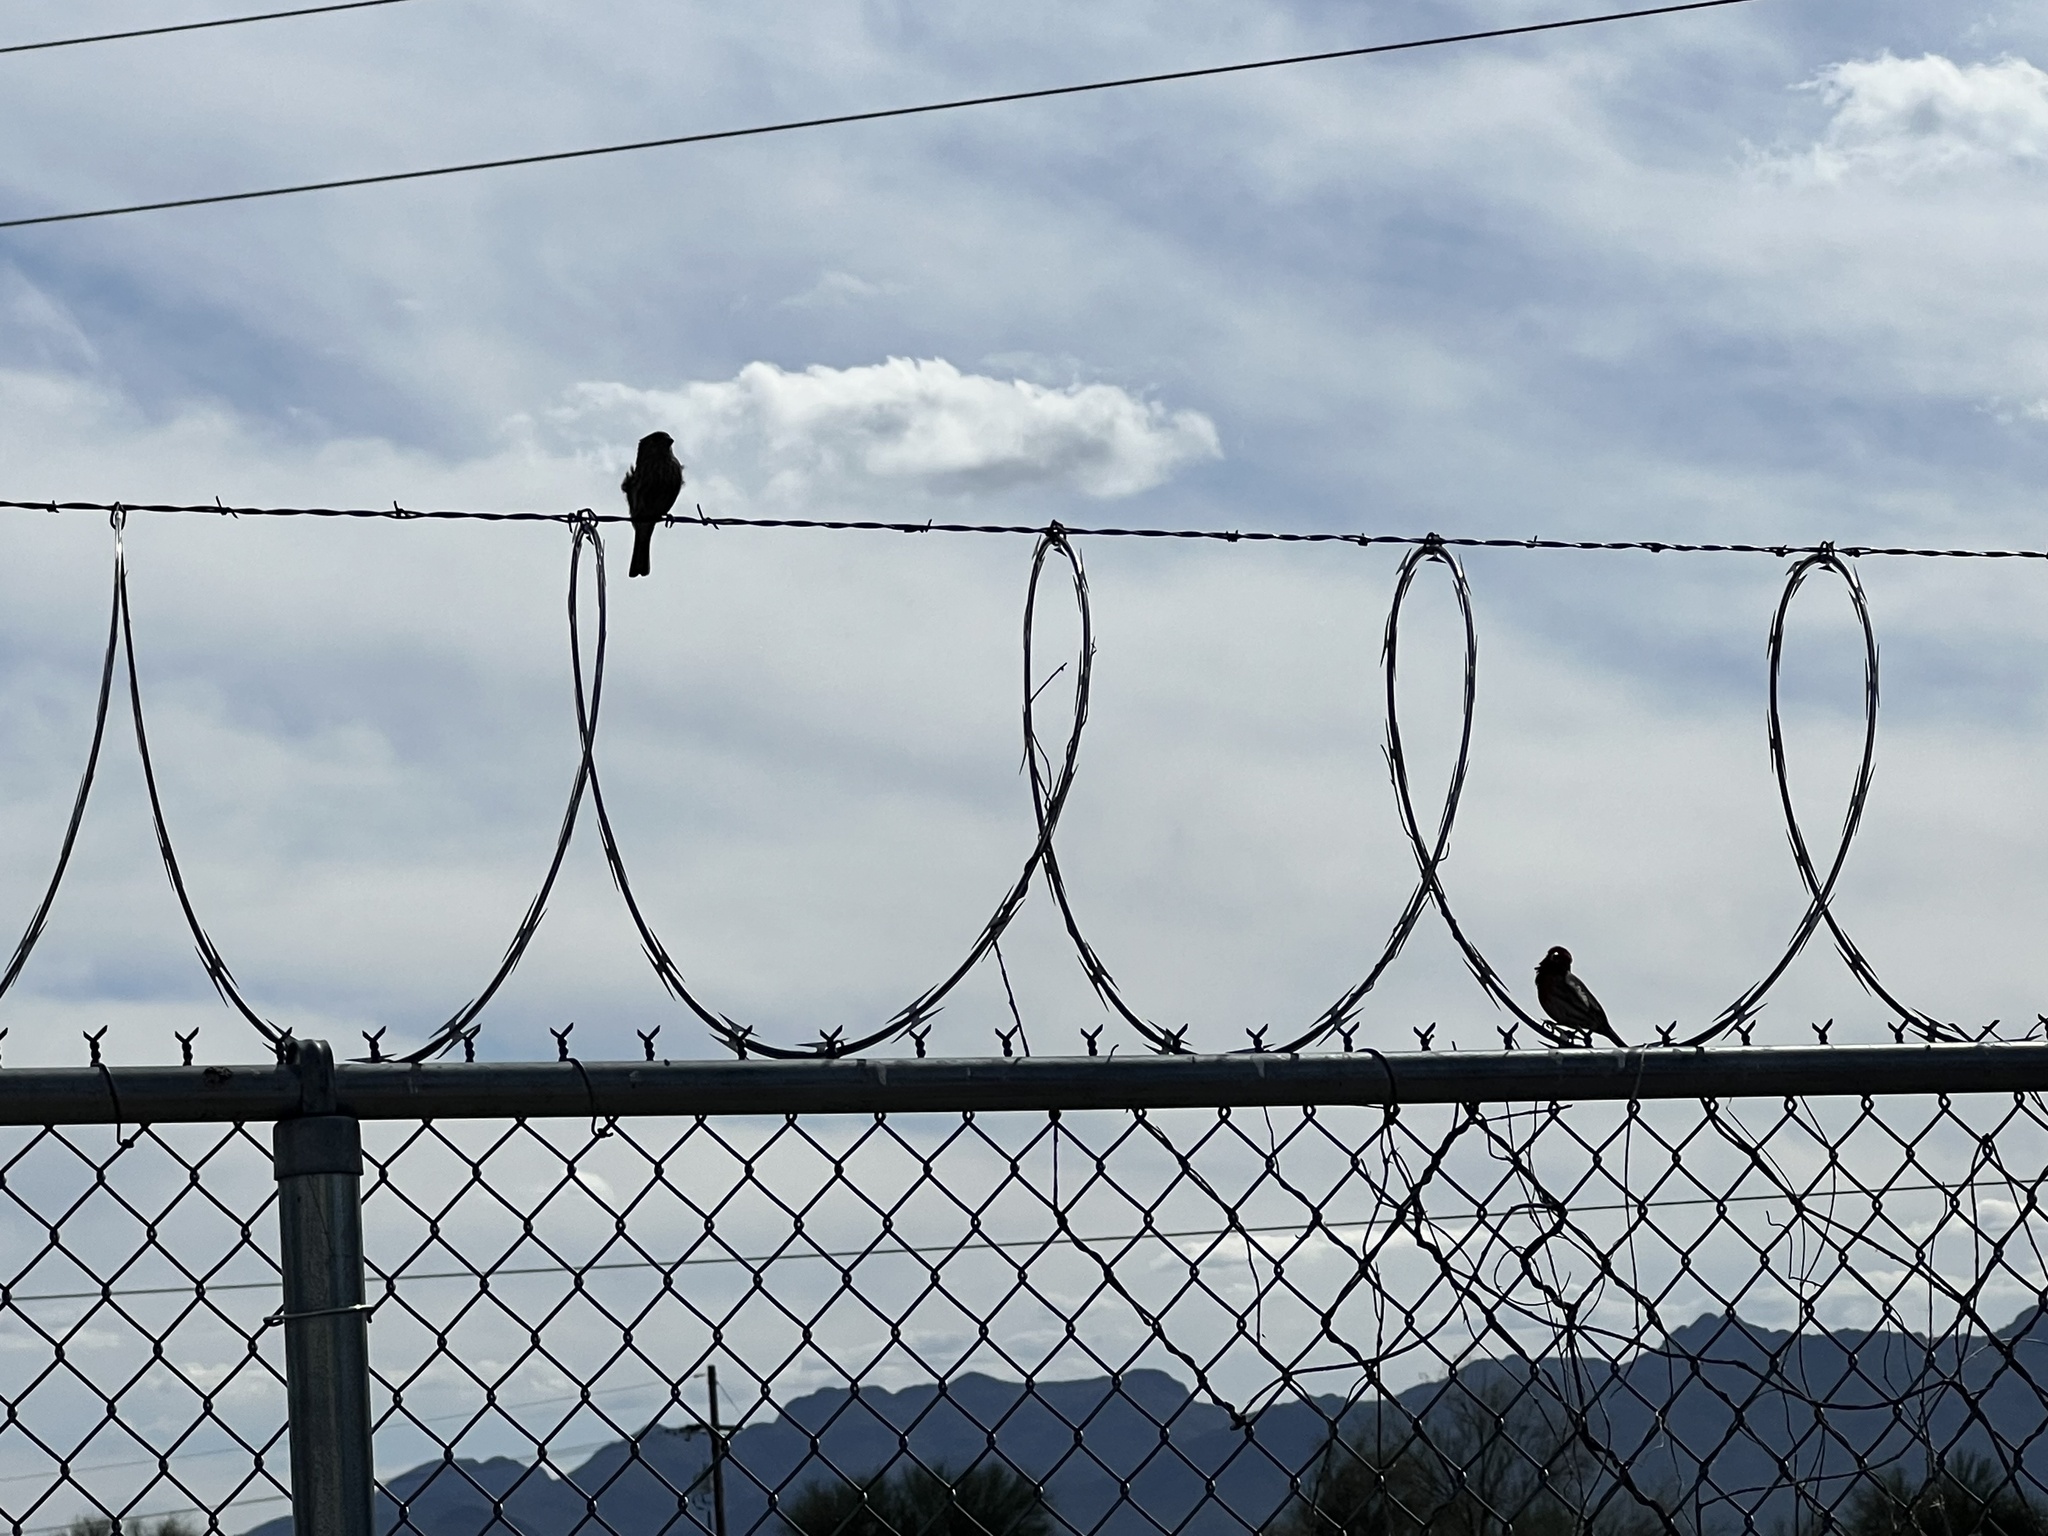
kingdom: Animalia
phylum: Chordata
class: Aves
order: Passeriformes
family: Fringillidae
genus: Haemorhous
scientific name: Haemorhous mexicanus
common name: House finch
